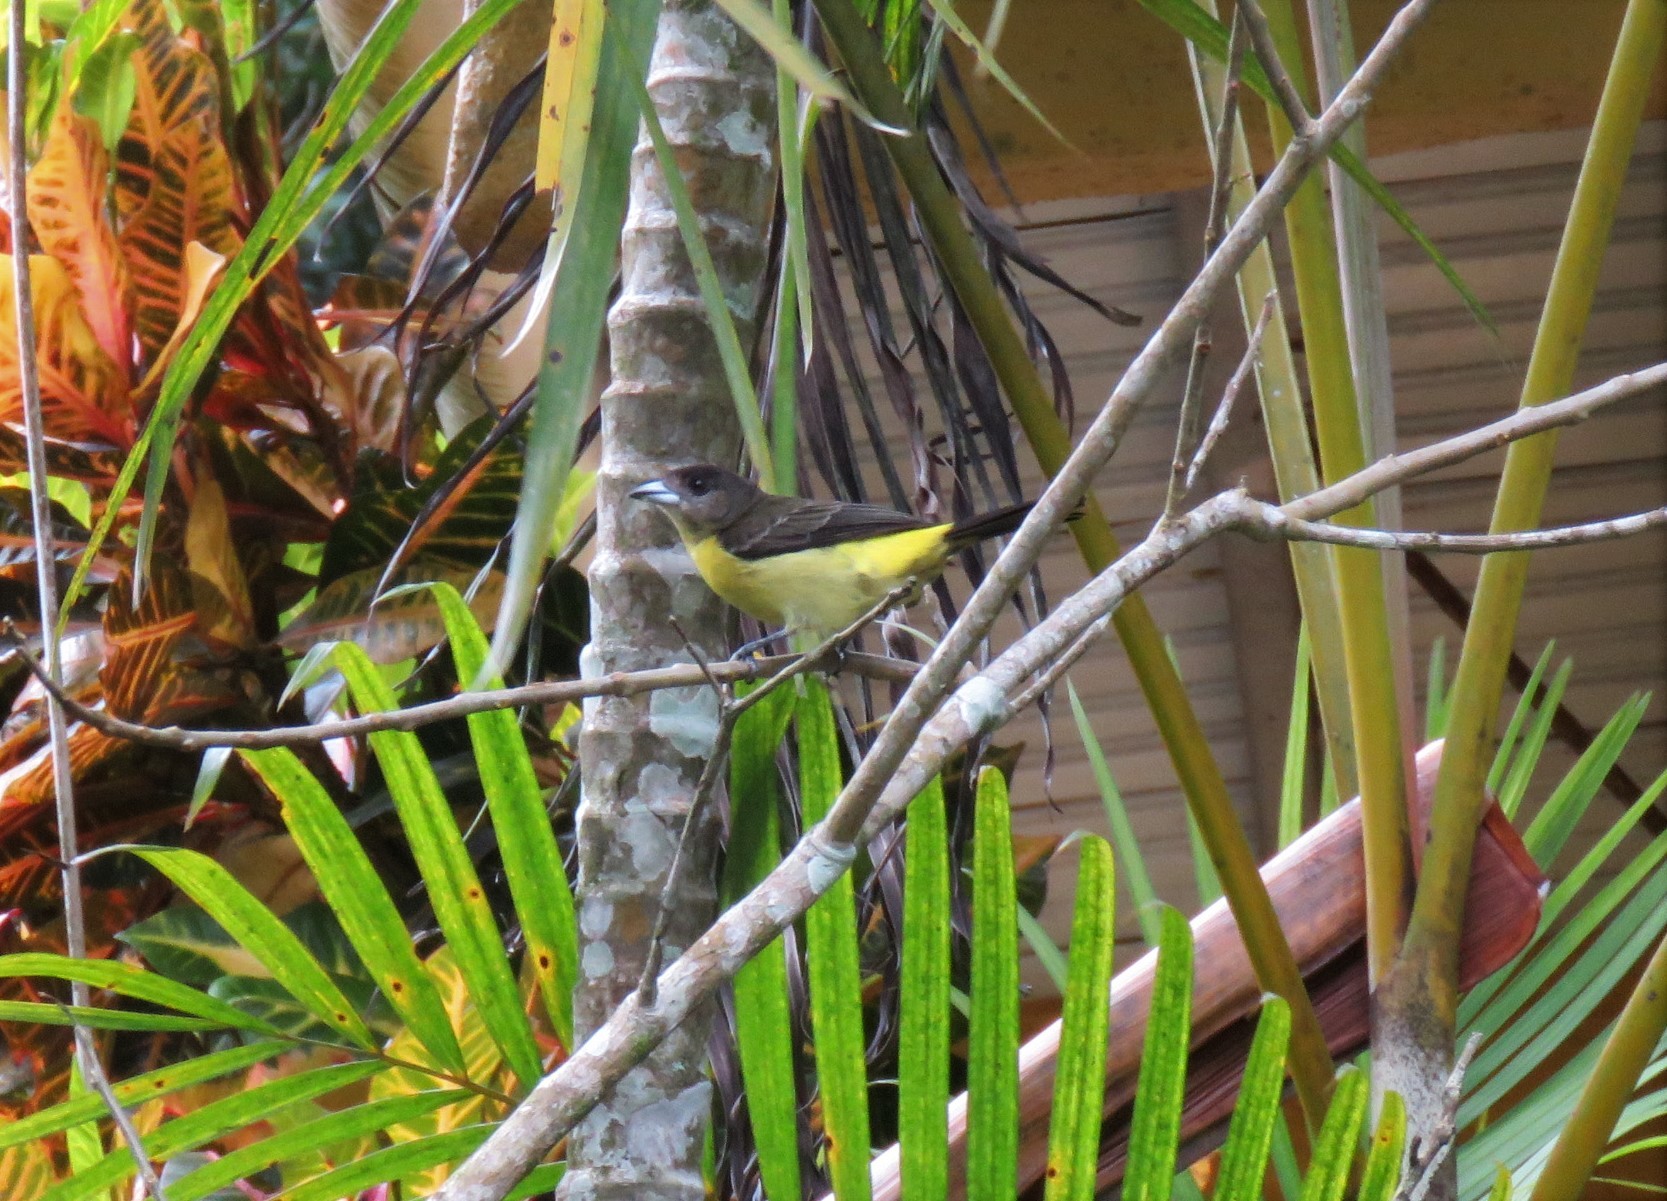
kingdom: Animalia
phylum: Chordata
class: Aves
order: Passeriformes
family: Thraupidae
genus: Ramphocelus
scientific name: Ramphocelus icteronotus
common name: Lemon-rumped tanager
